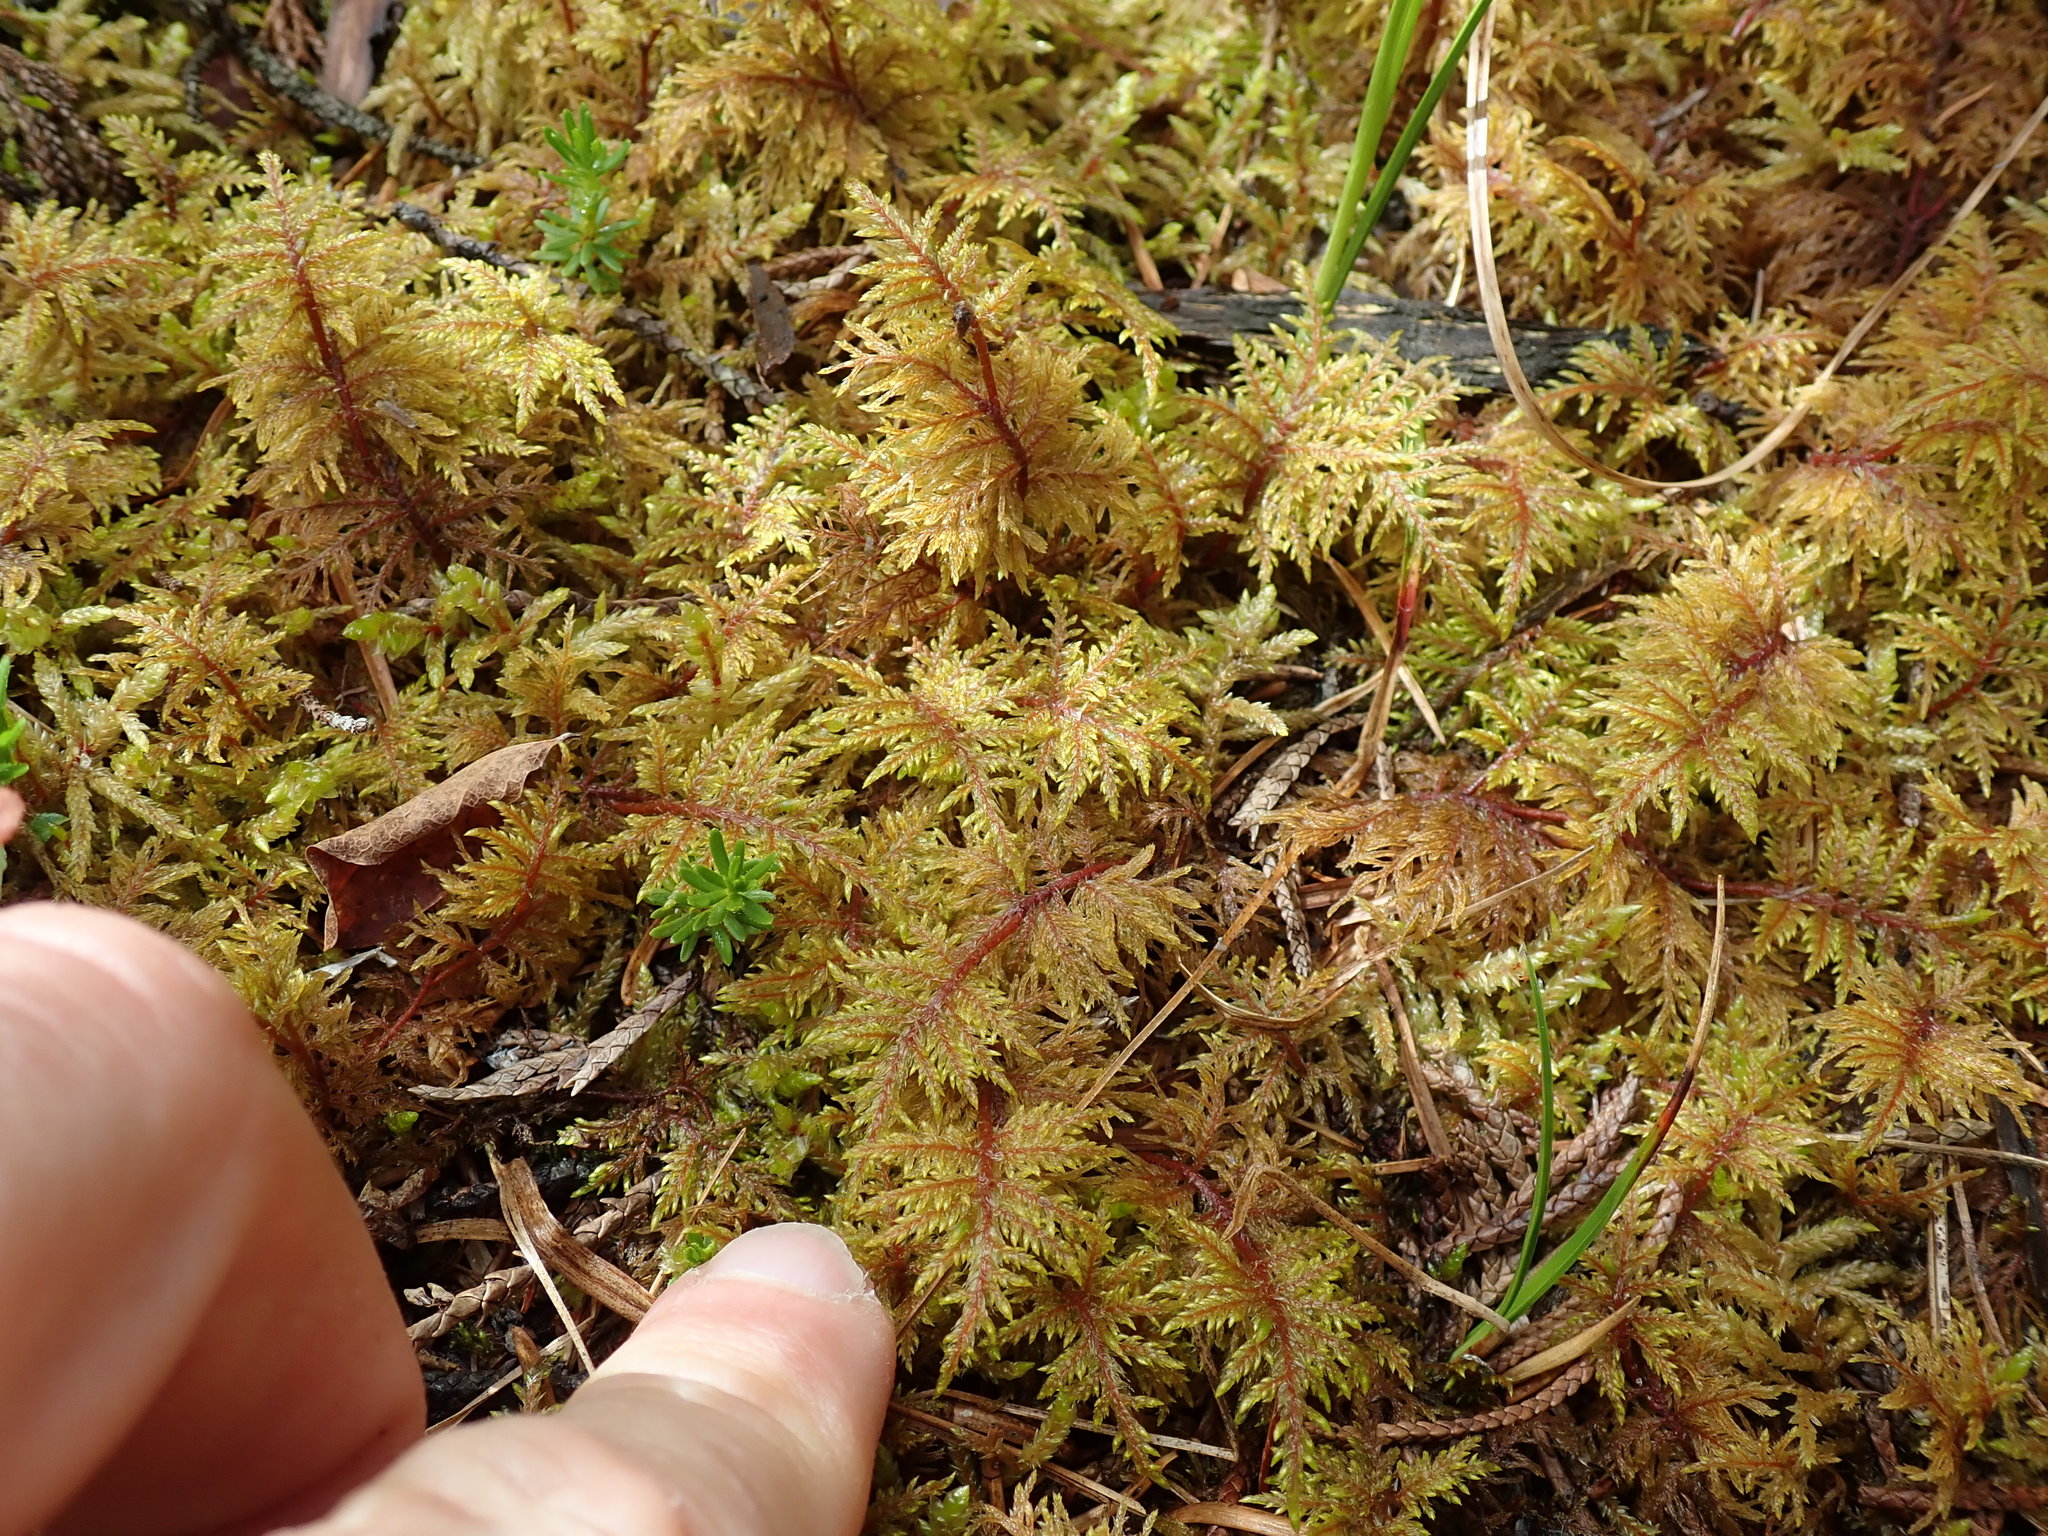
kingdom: Plantae
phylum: Bryophyta
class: Bryopsida
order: Hypnales
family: Hylocomiaceae
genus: Hylocomium
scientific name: Hylocomium splendens
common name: Stairstep moss
